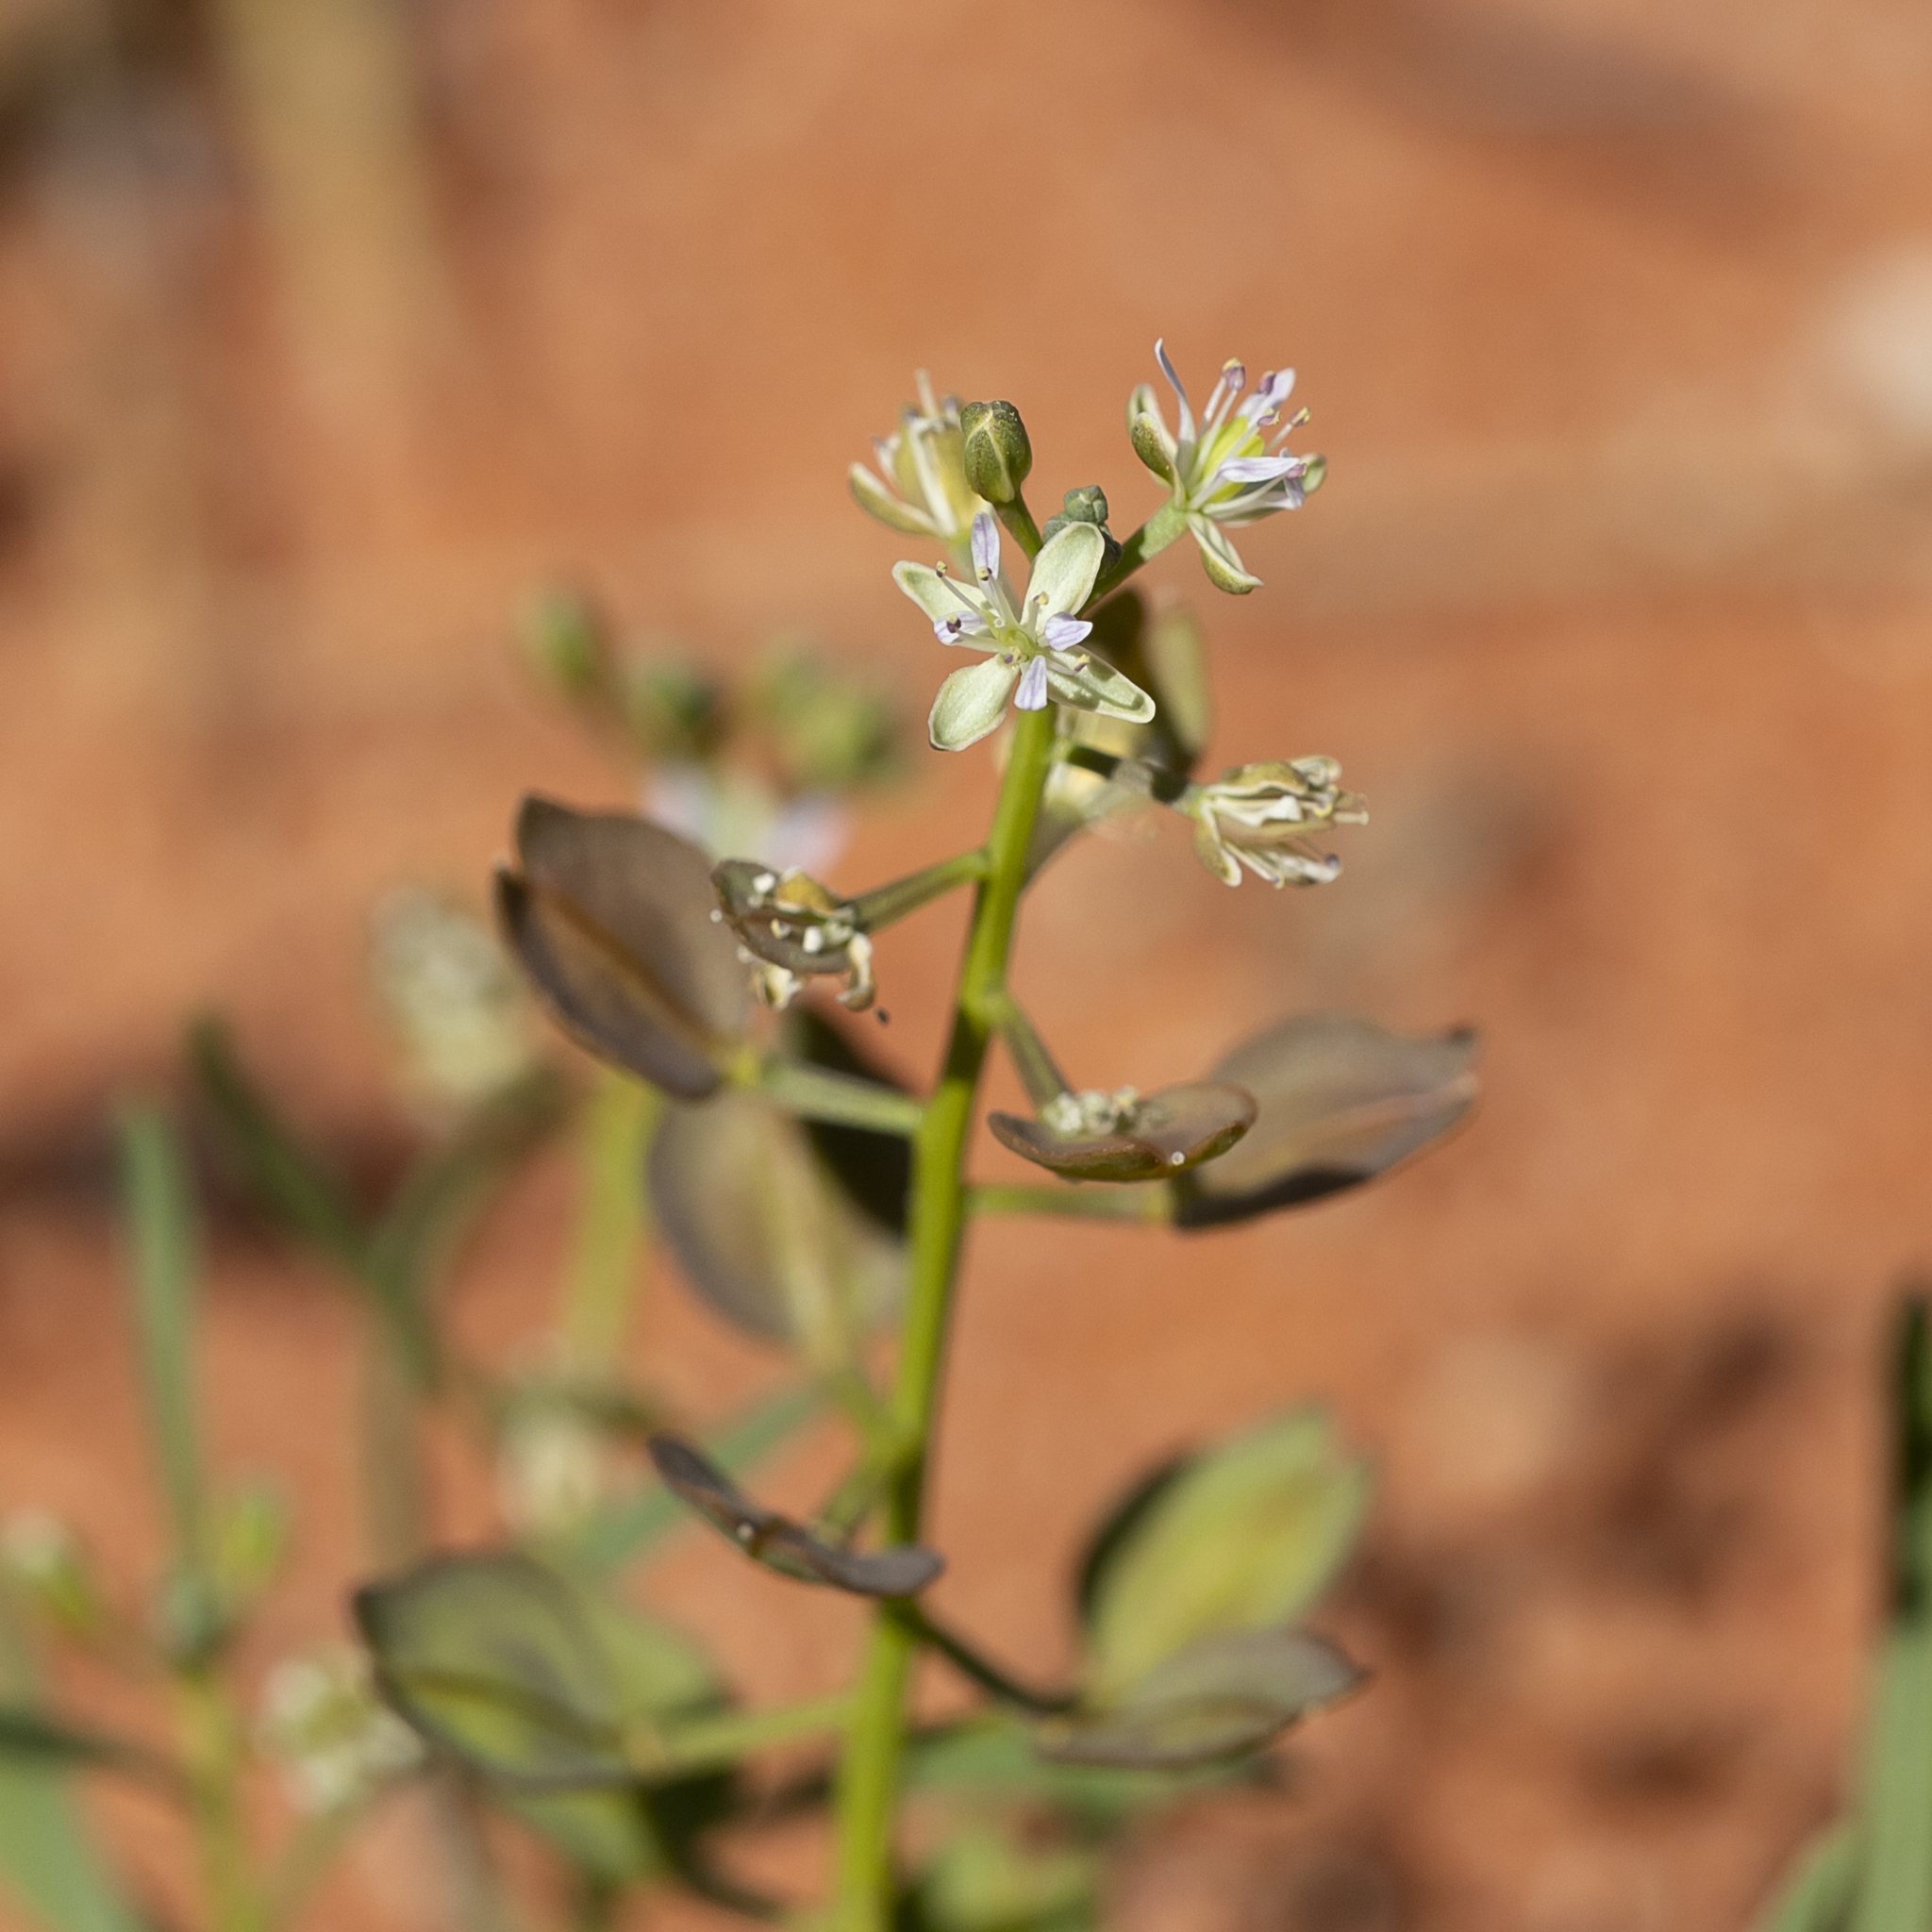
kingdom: Plantae
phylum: Tracheophyta
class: Magnoliopsida
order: Brassicales
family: Brassicaceae
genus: Lepidium
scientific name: Lepidium phlebopetalum
